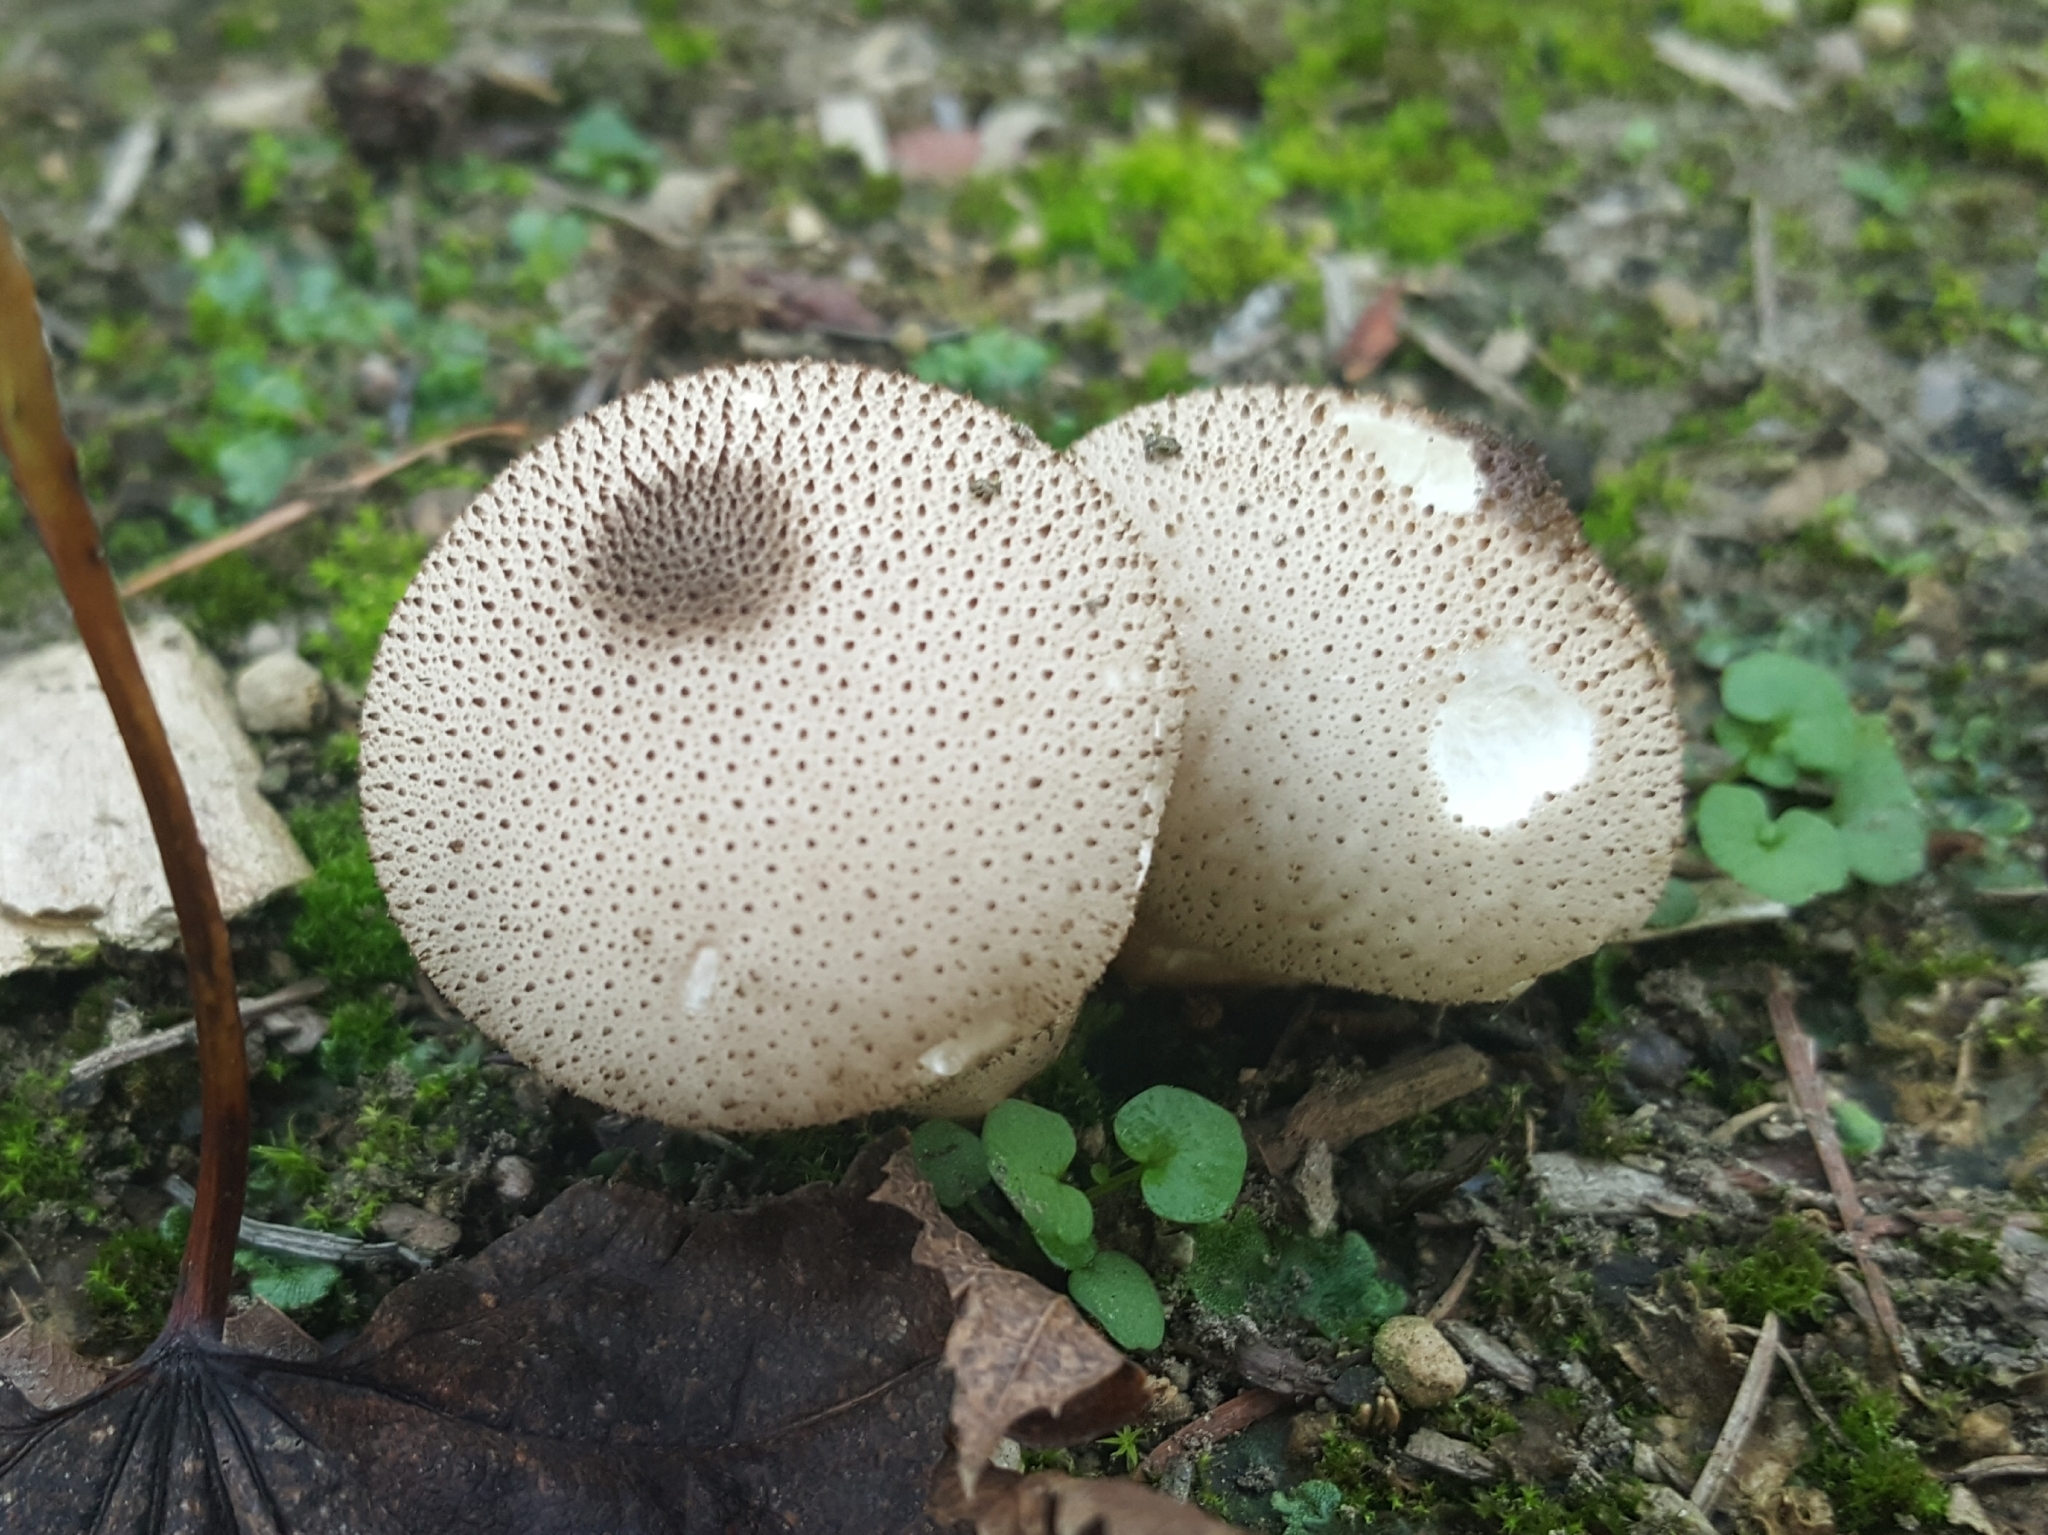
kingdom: Fungi
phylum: Basidiomycota
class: Agaricomycetes
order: Agaricales
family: Lycoperdaceae
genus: Lycoperdon
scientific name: Lycoperdon perlatum
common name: Common puffball
